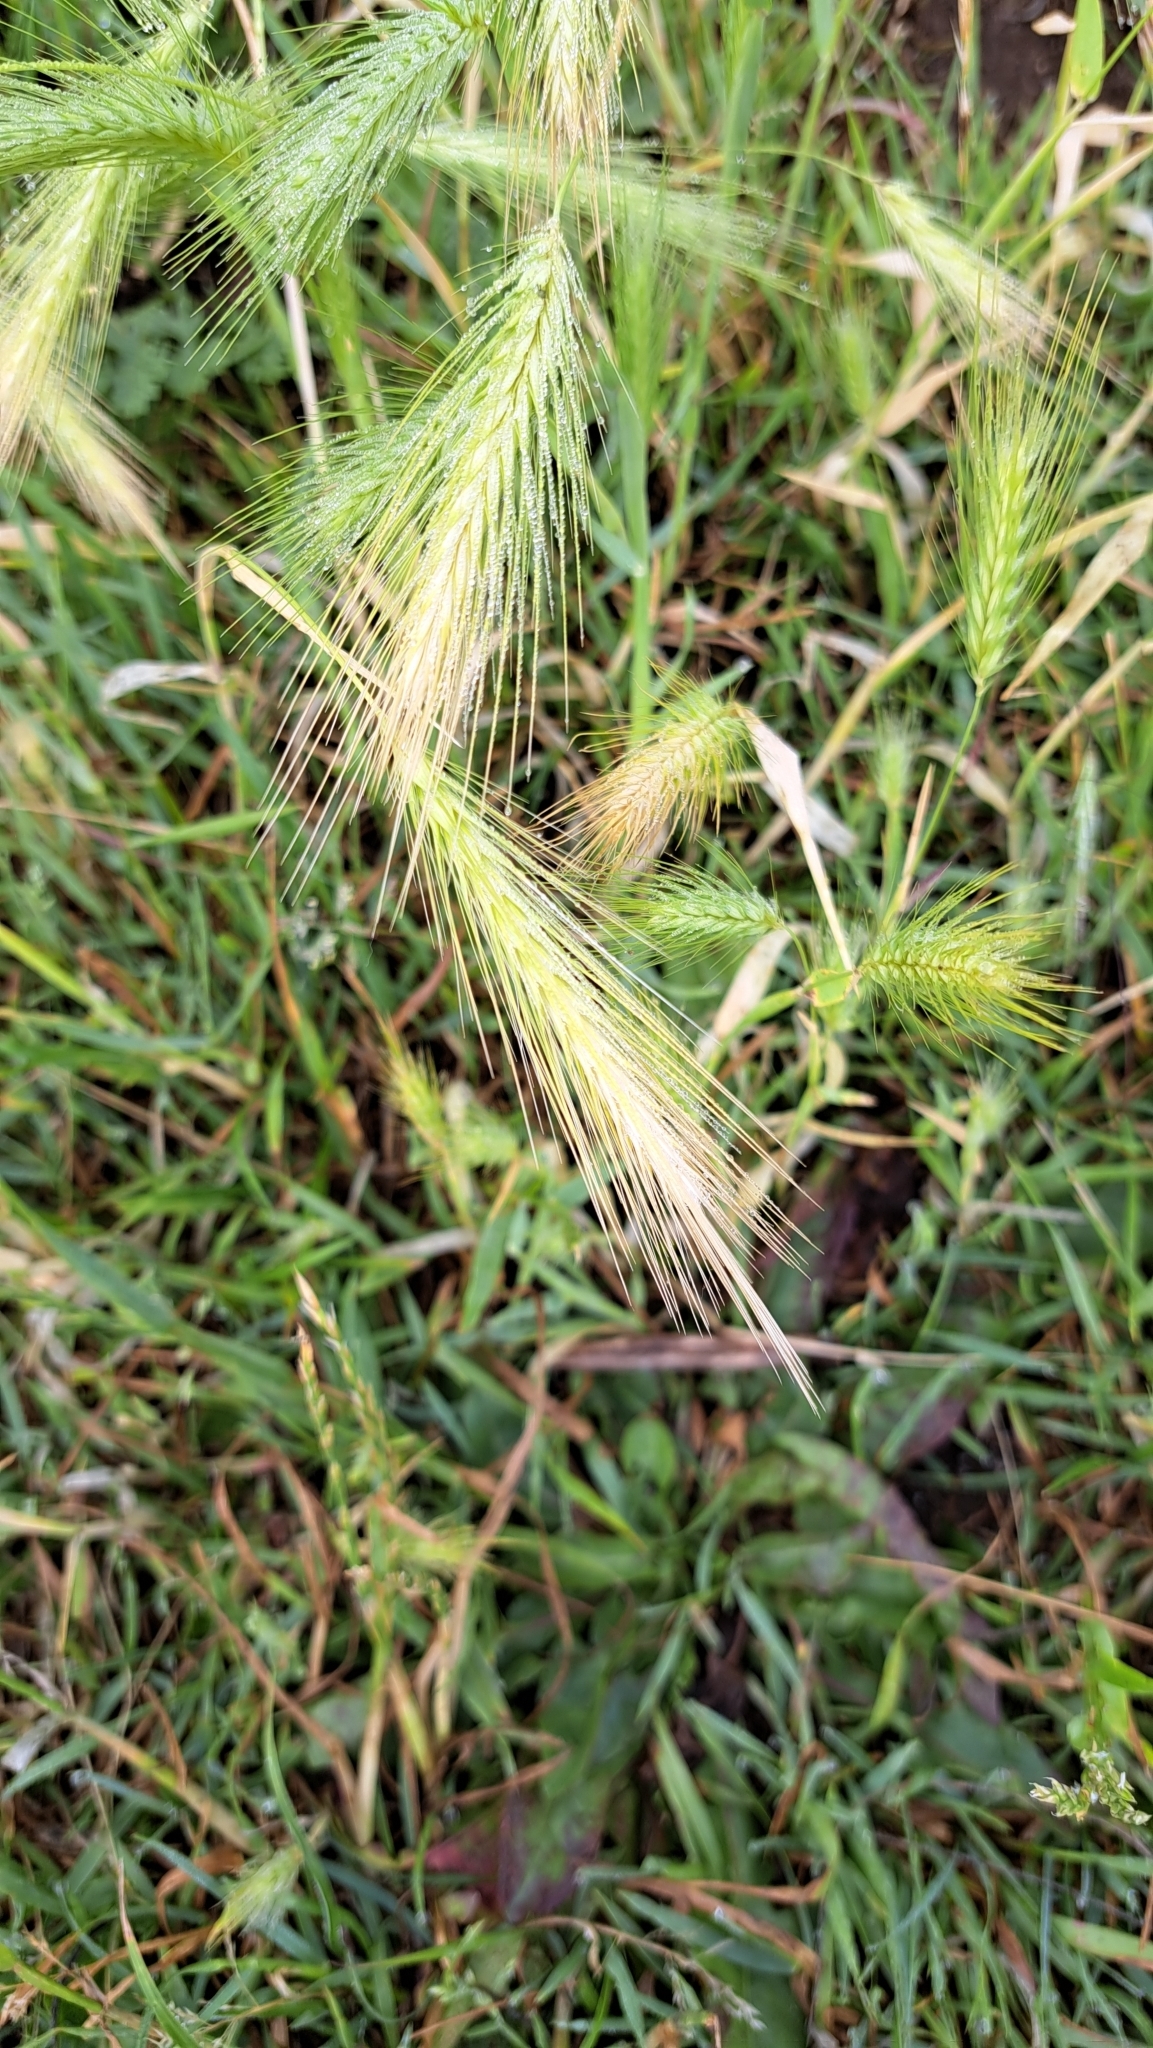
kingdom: Plantae
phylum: Tracheophyta
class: Liliopsida
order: Poales
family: Poaceae
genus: Hordeum
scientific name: Hordeum murinum
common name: Wall barley
